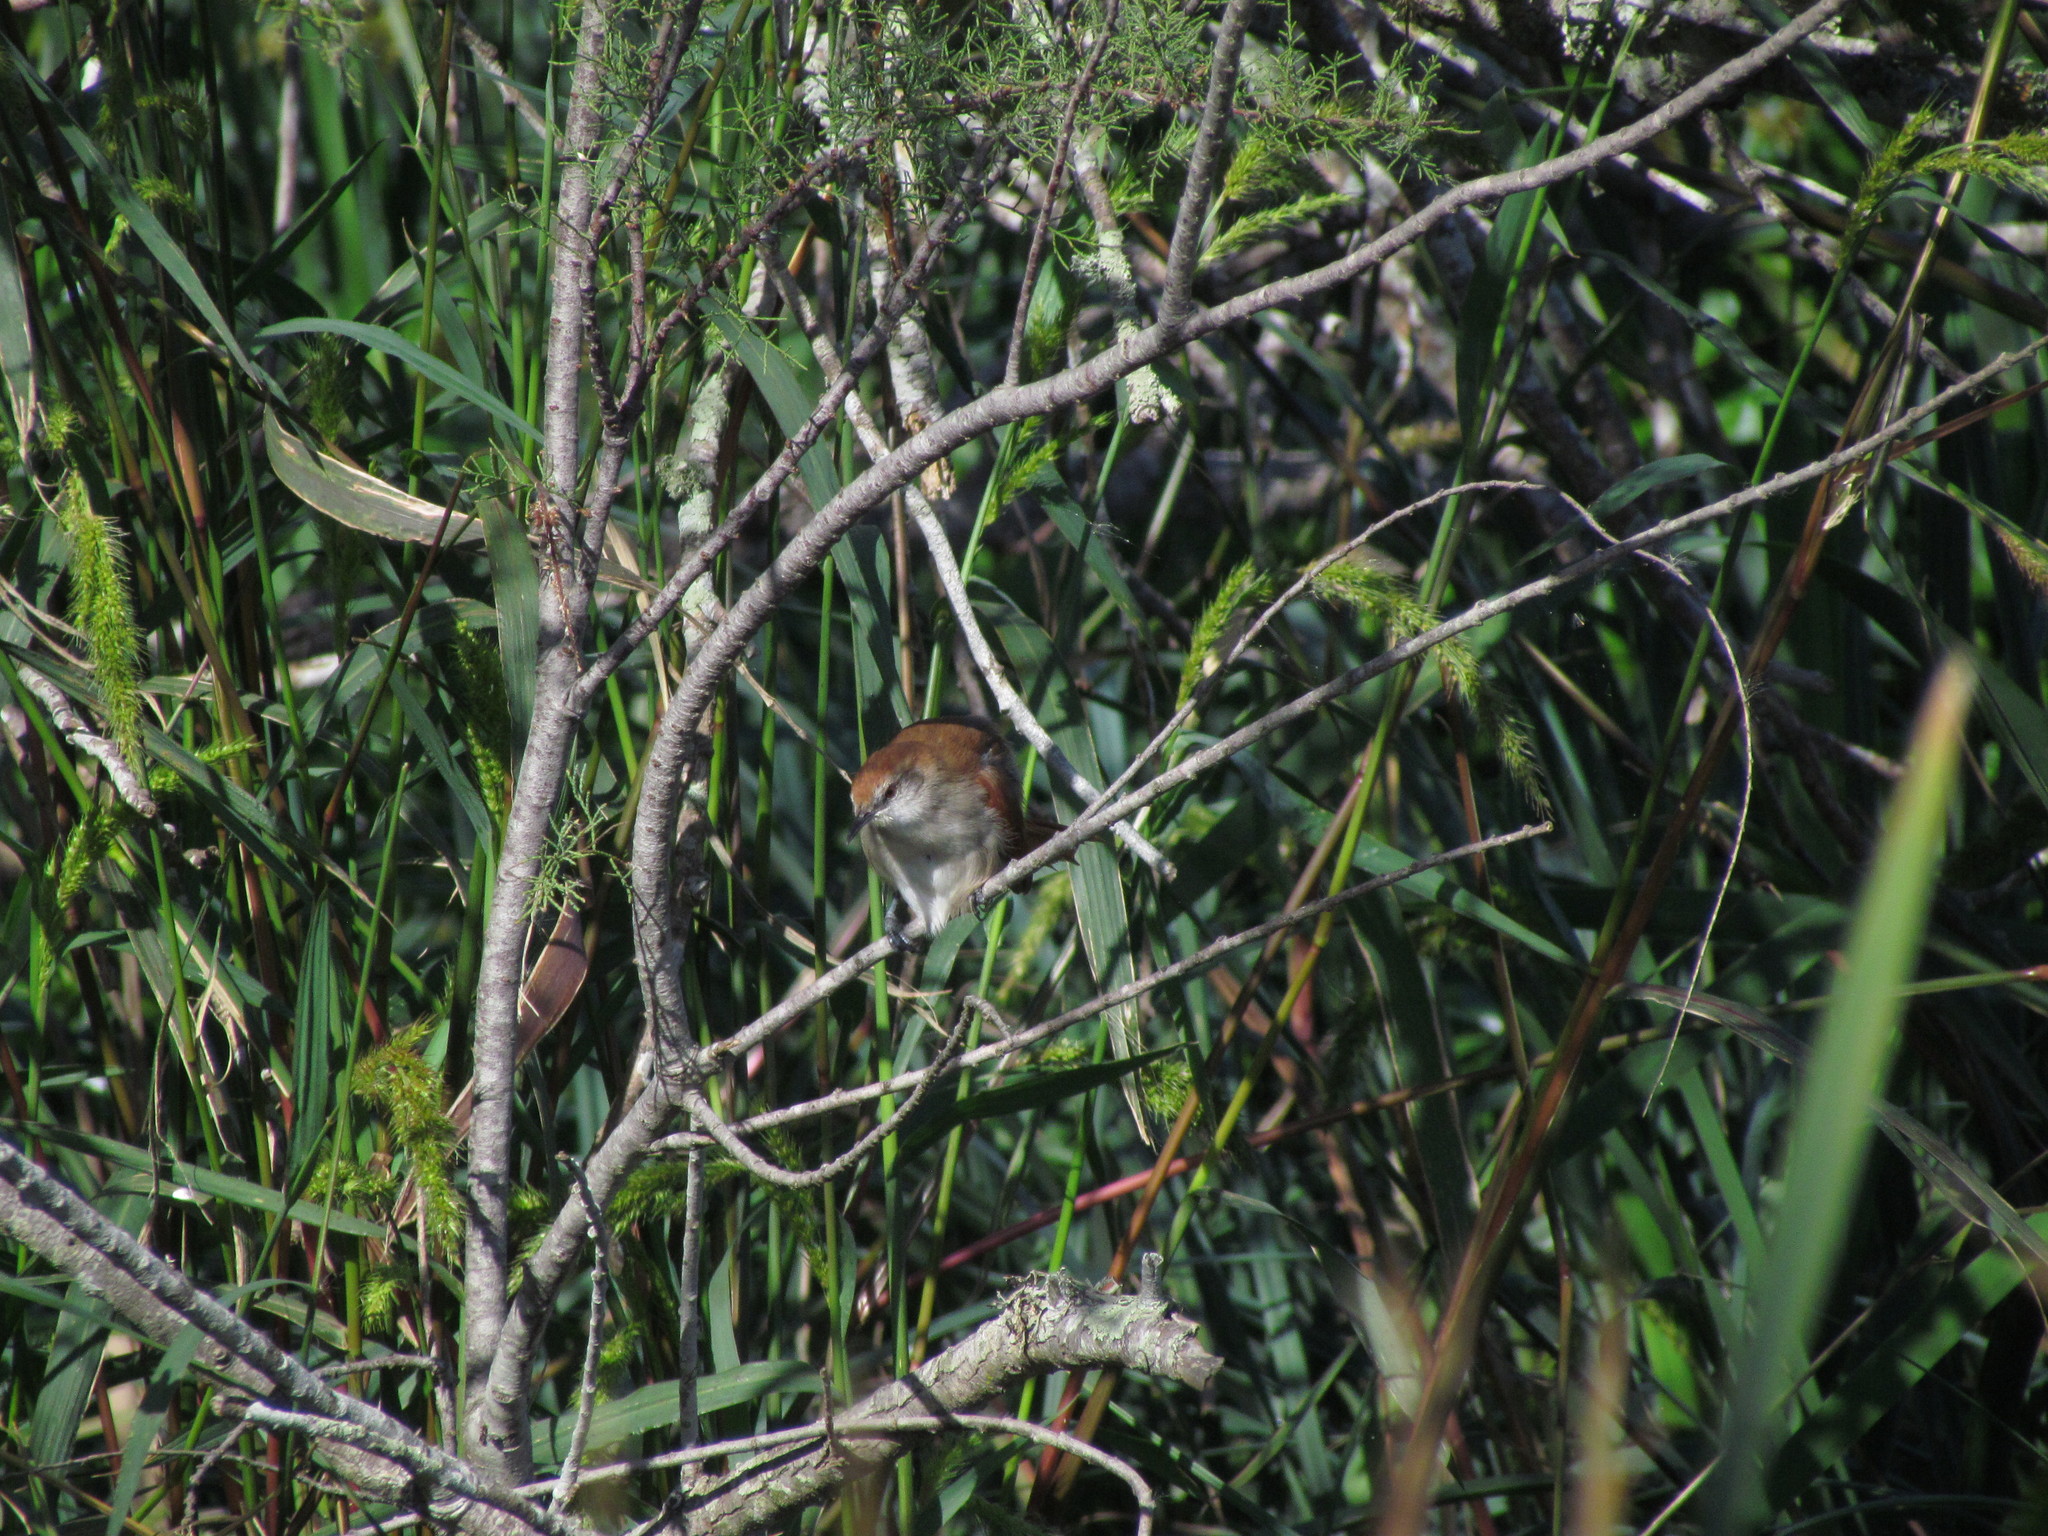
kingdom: Animalia
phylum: Chordata
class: Aves
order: Passeriformes
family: Furnariidae
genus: Certhiaxis
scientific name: Certhiaxis cinnamomeus
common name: Yellow-chinned spinetail
